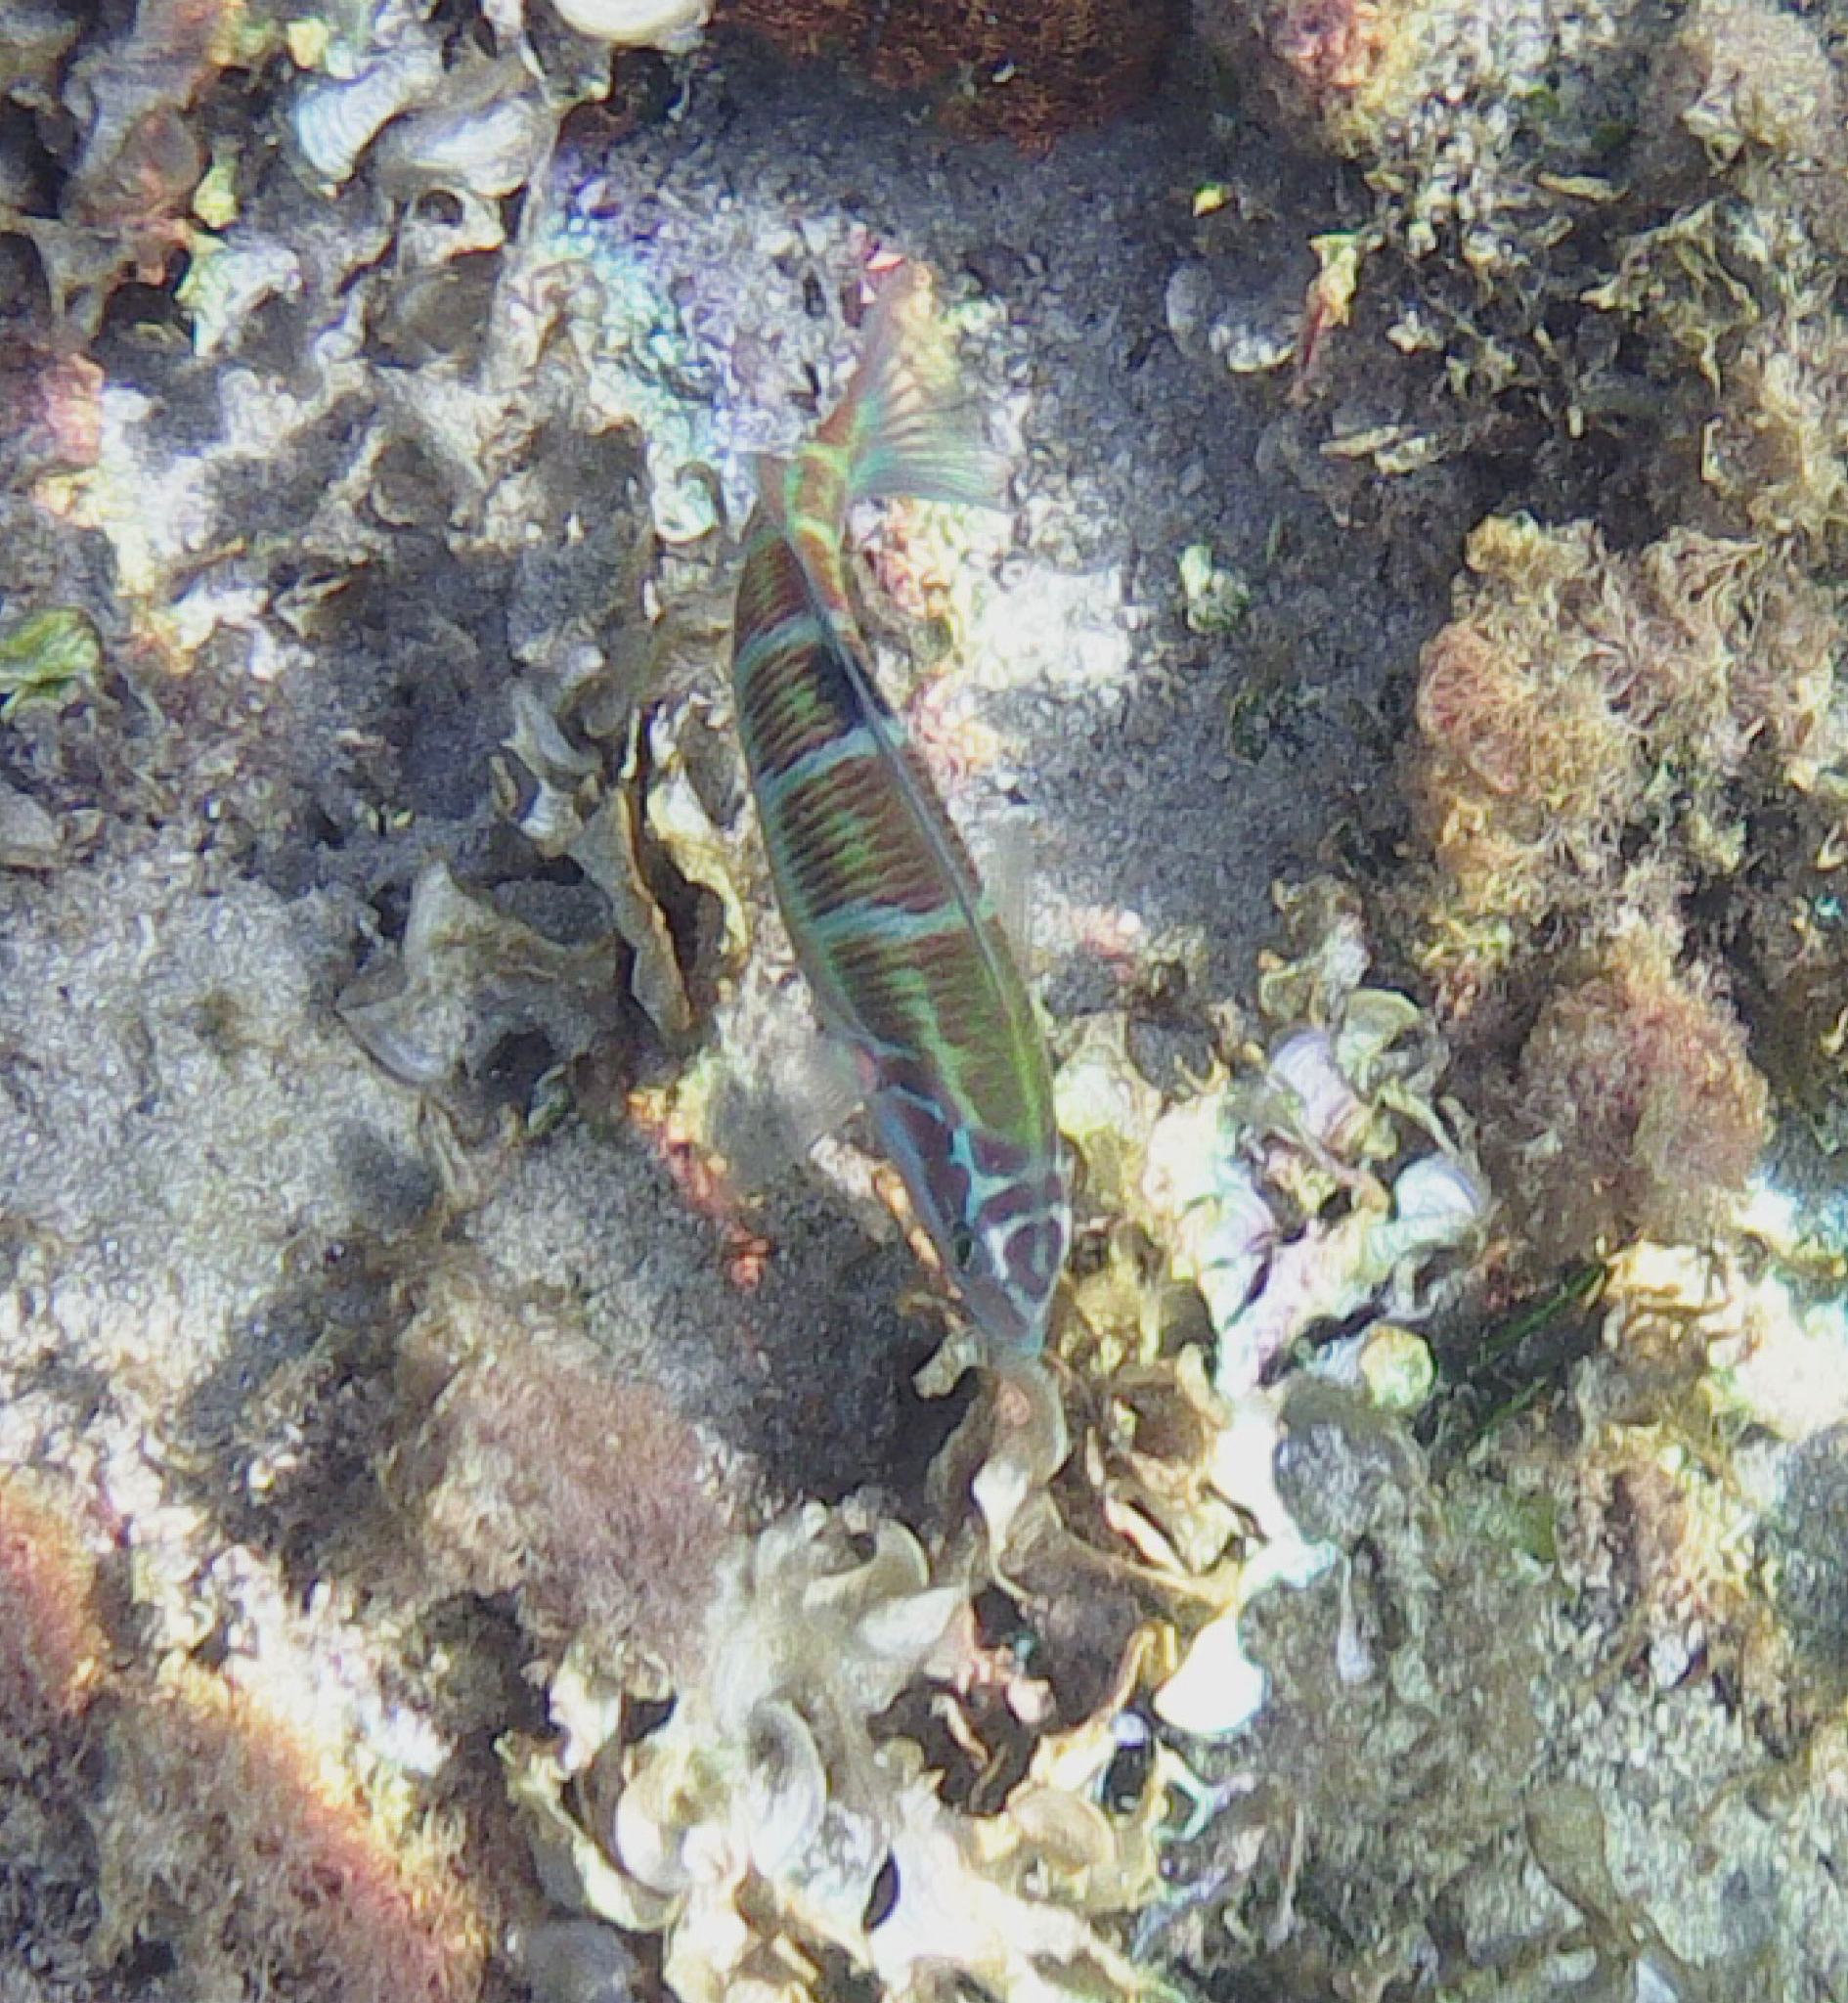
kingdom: Animalia
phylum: Chordata
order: Perciformes
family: Labridae
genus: Thalassoma
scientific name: Thalassoma pavo
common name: Ornate wrasse
